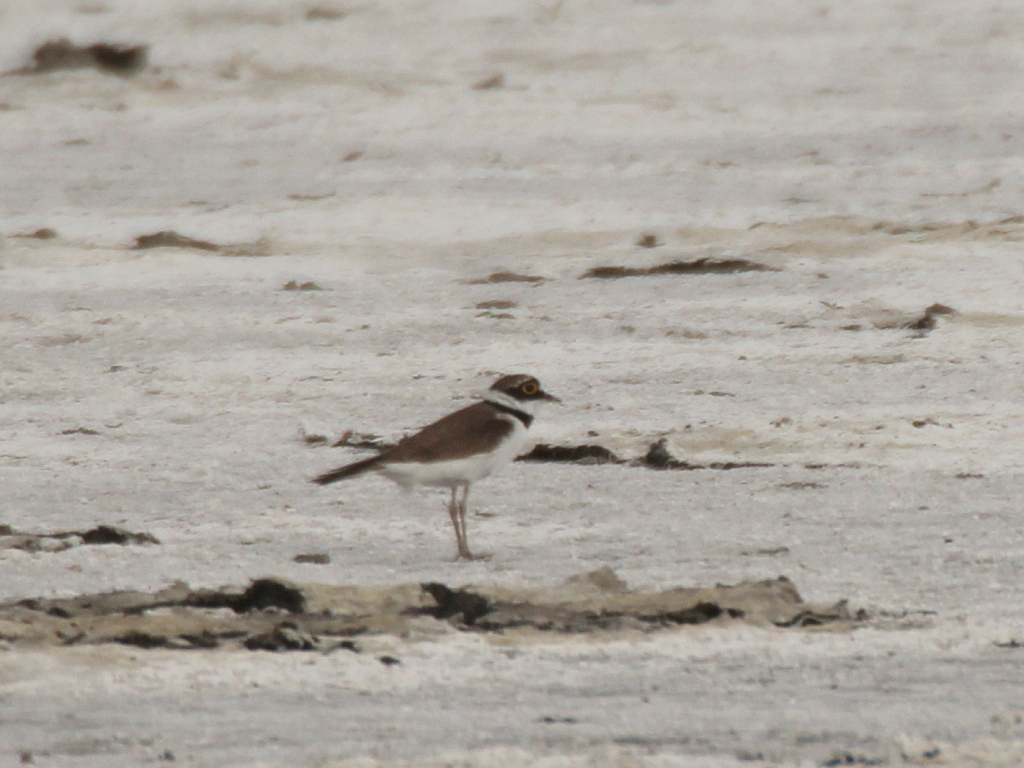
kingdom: Animalia
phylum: Chordata
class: Aves
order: Charadriiformes
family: Charadriidae
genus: Charadrius
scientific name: Charadrius dubius
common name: Little ringed plover
